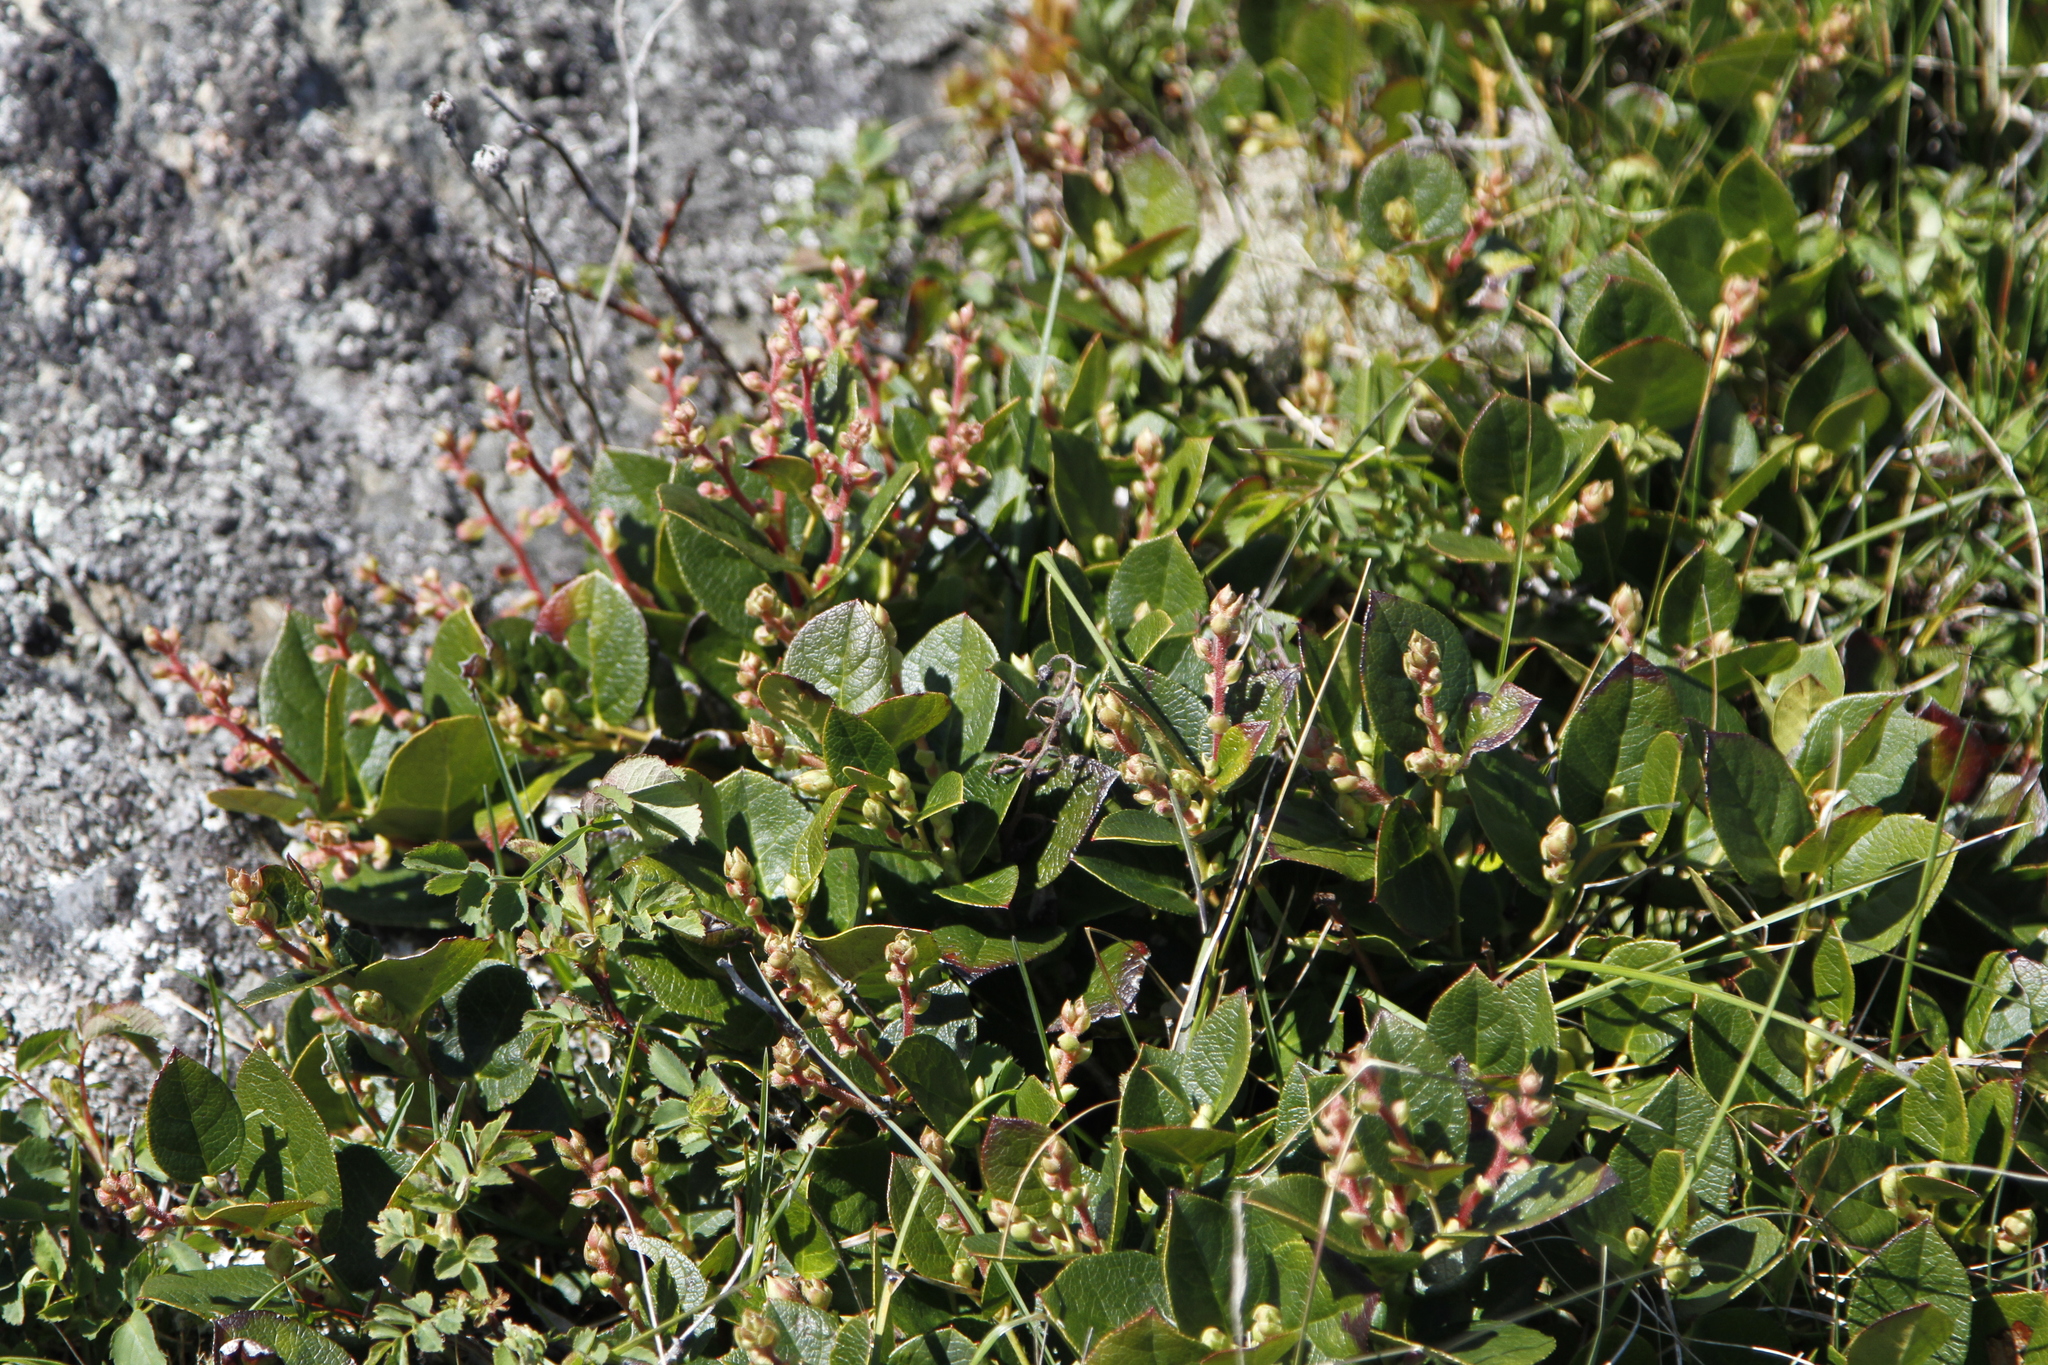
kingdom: Plantae
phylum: Tracheophyta
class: Magnoliopsida
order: Ericales
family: Ericaceae
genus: Gaultheria
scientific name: Gaultheria shallon
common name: Shallon
